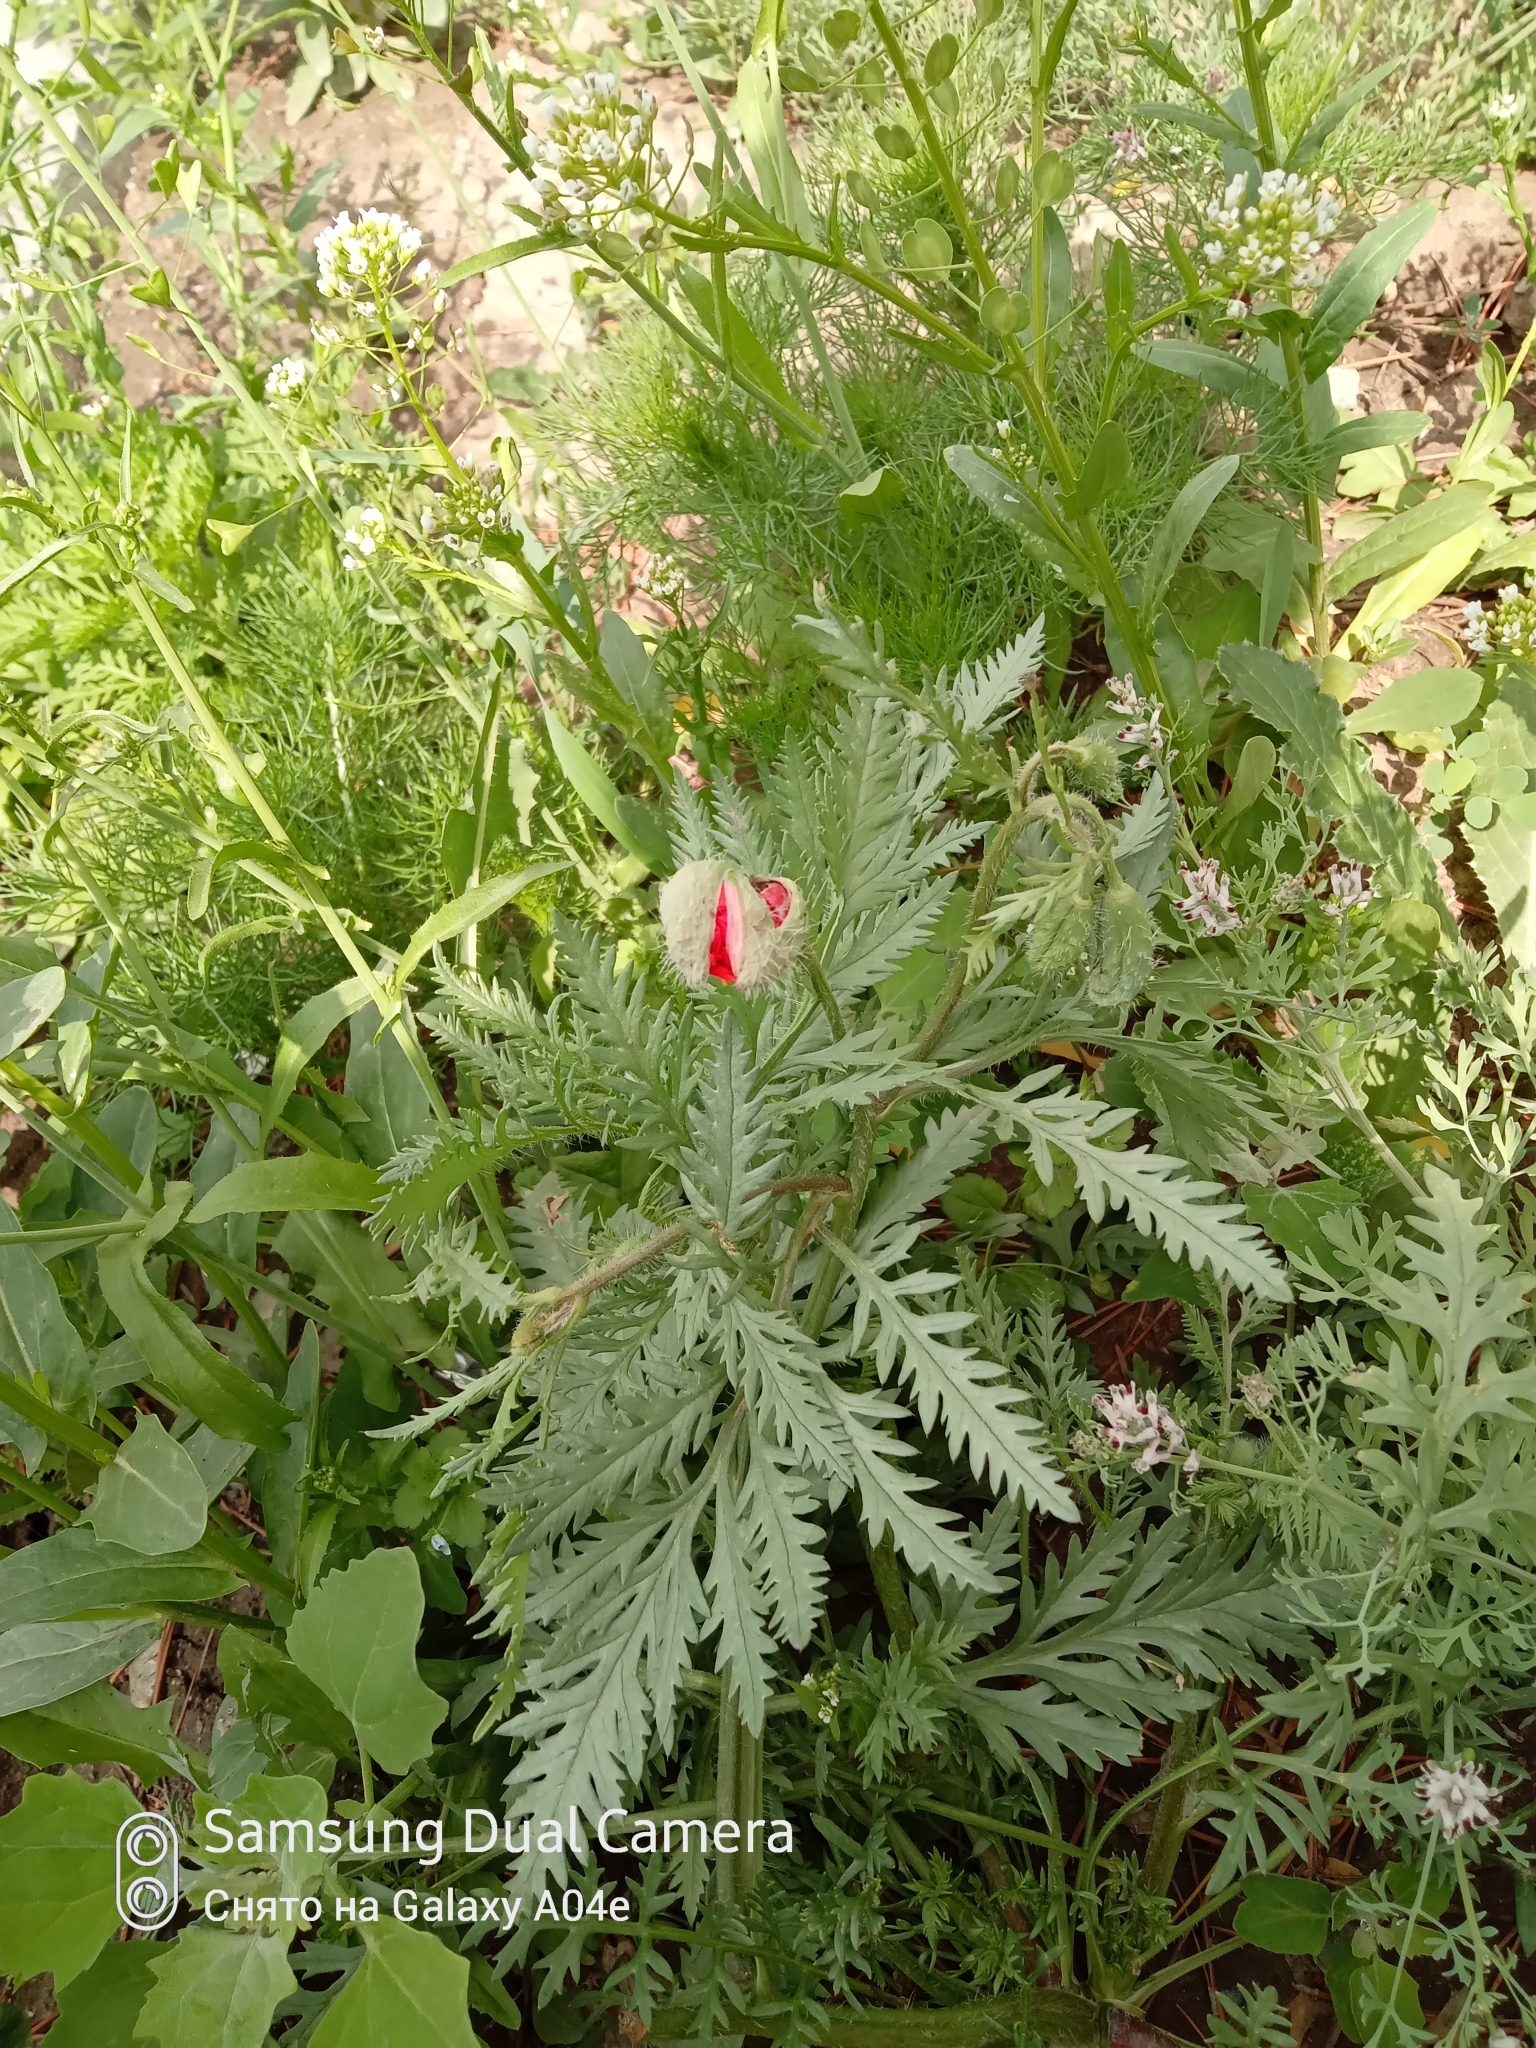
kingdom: Plantae
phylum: Tracheophyta
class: Magnoliopsida
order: Ranunculales
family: Papaveraceae
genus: Roemeria
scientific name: Roemeria refracta
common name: Spotted asian poppy
